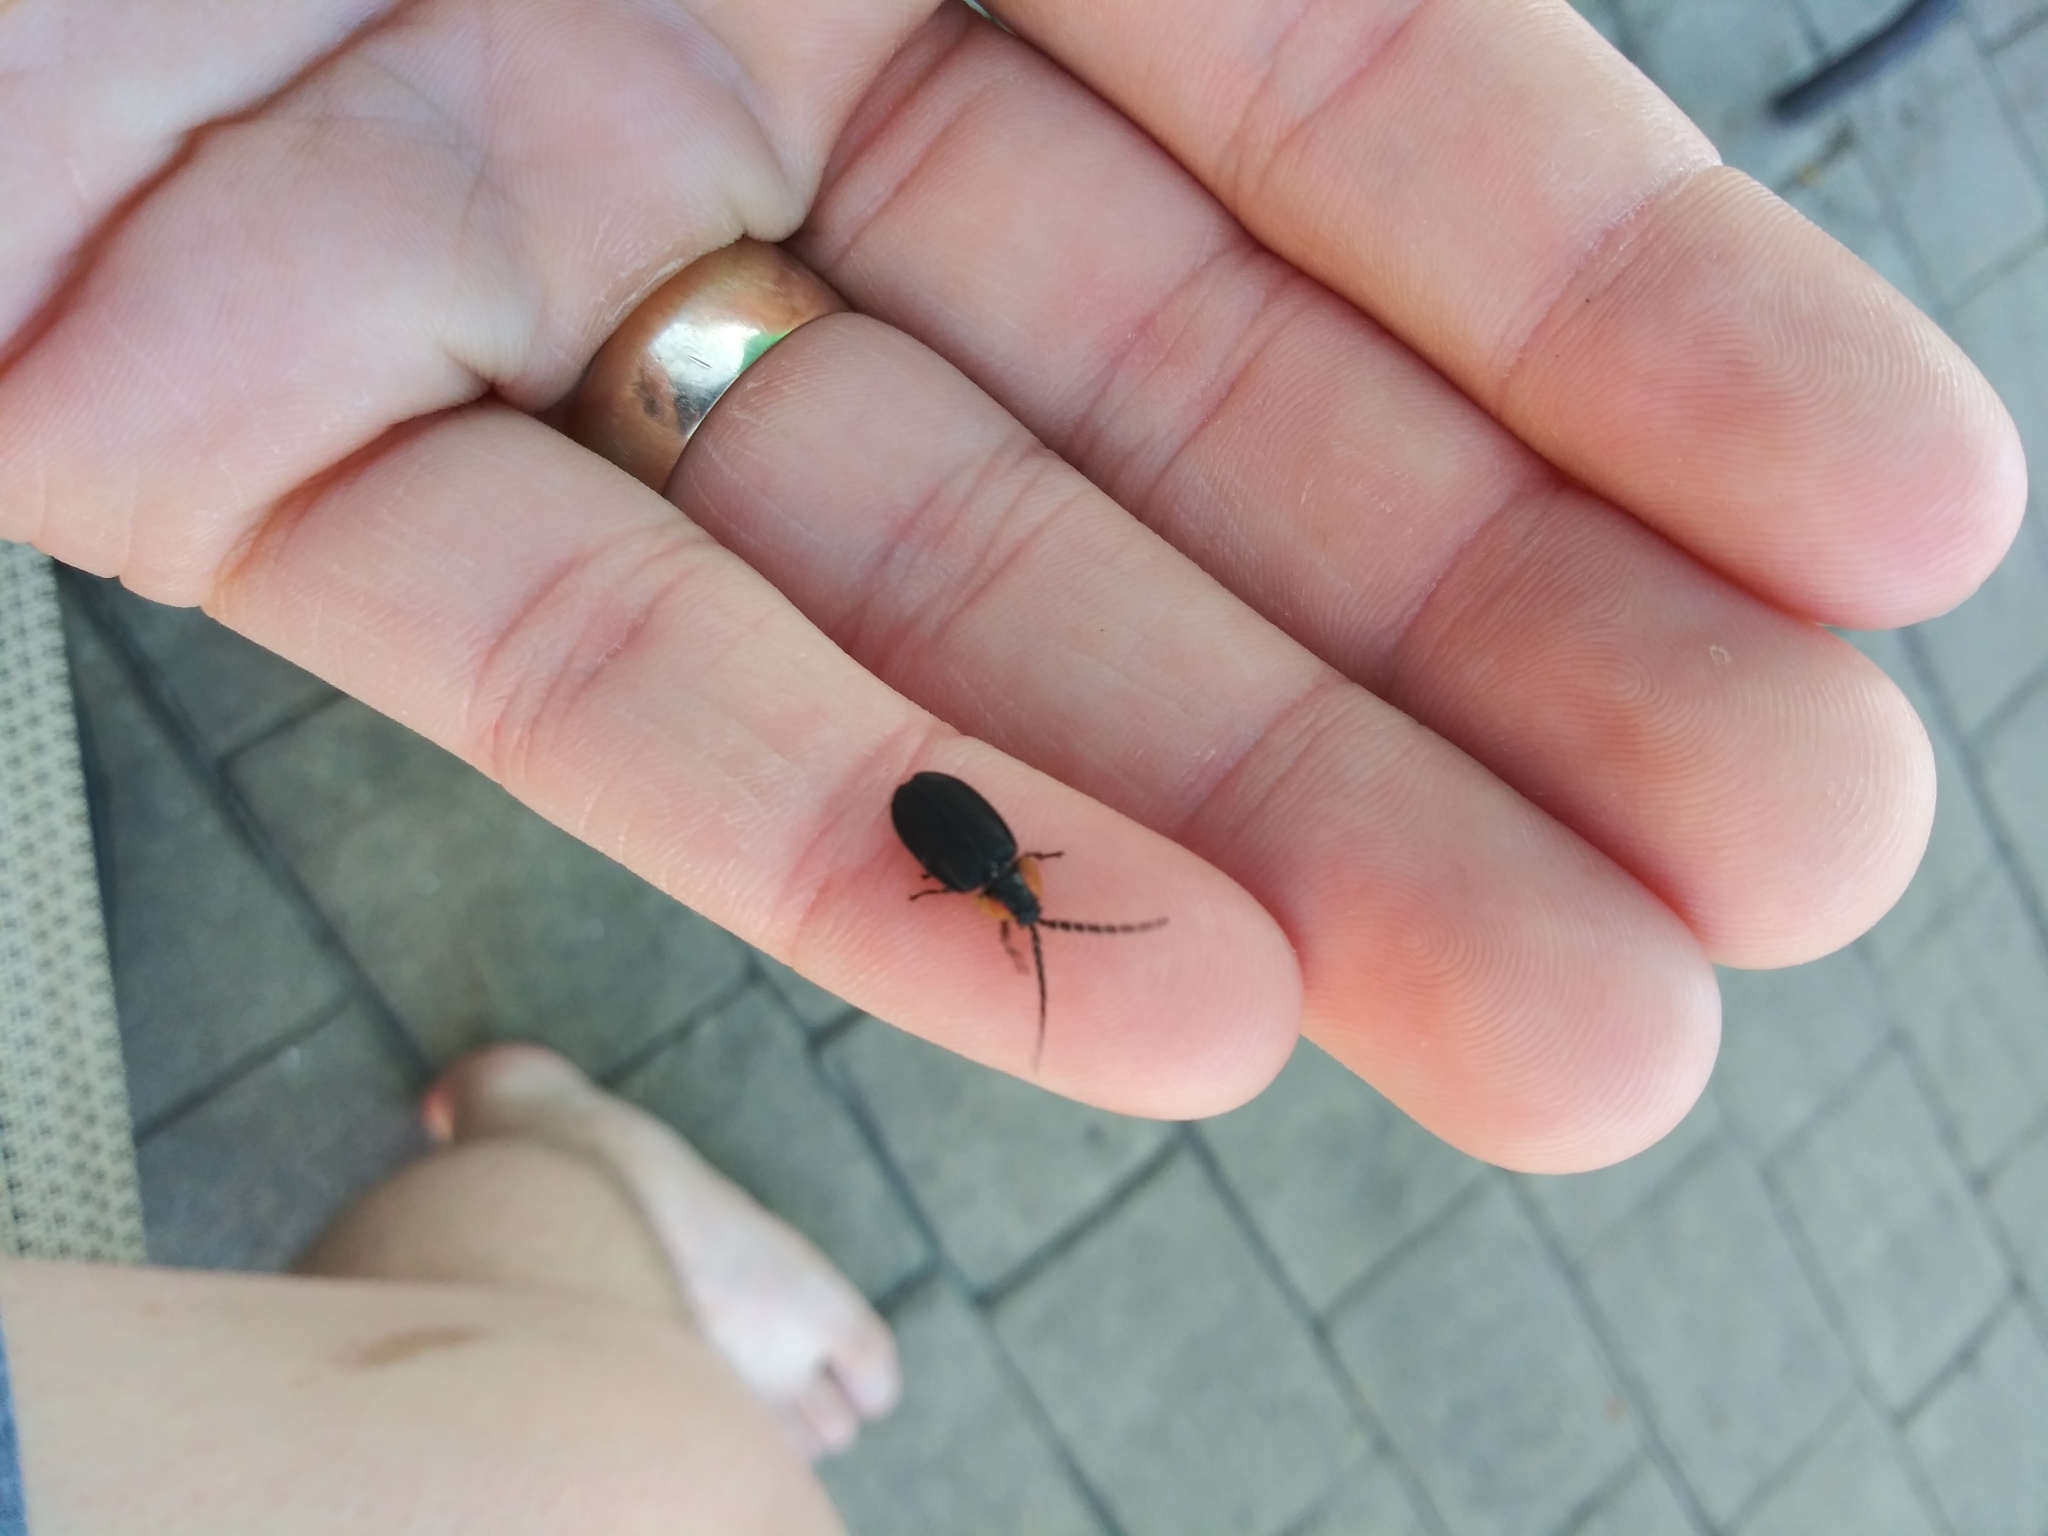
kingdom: Animalia
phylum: Arthropoda
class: Insecta
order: Coleoptera
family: Lampyridae
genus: Lucidota
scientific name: Lucidota atra
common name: Black firefly
